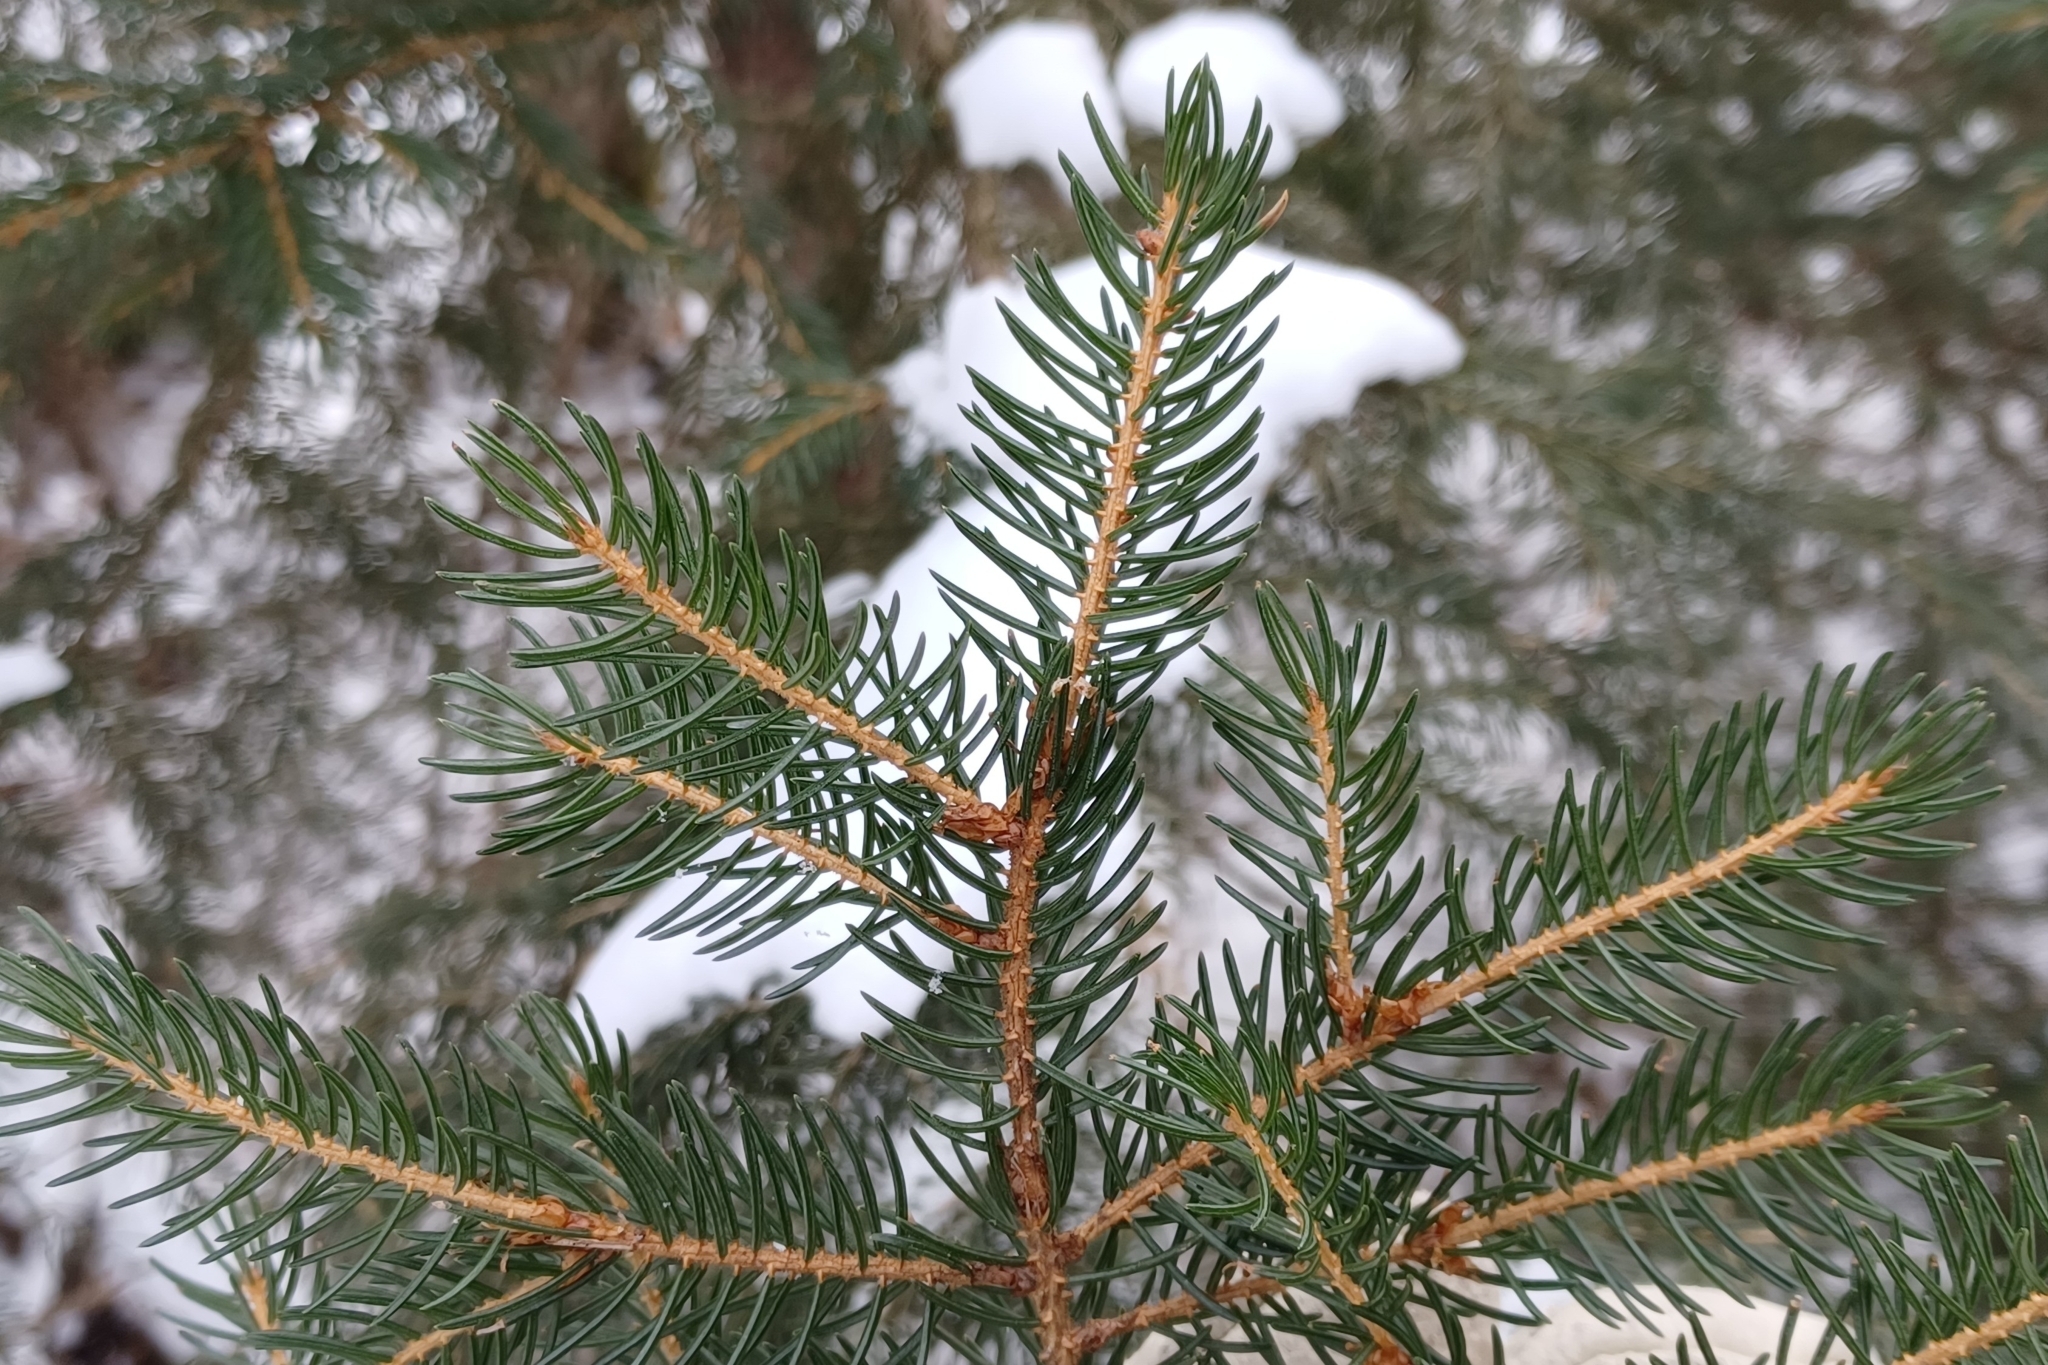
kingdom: Plantae
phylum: Tracheophyta
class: Pinopsida
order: Pinales
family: Pinaceae
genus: Picea
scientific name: Picea rubens
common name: Red spruce
